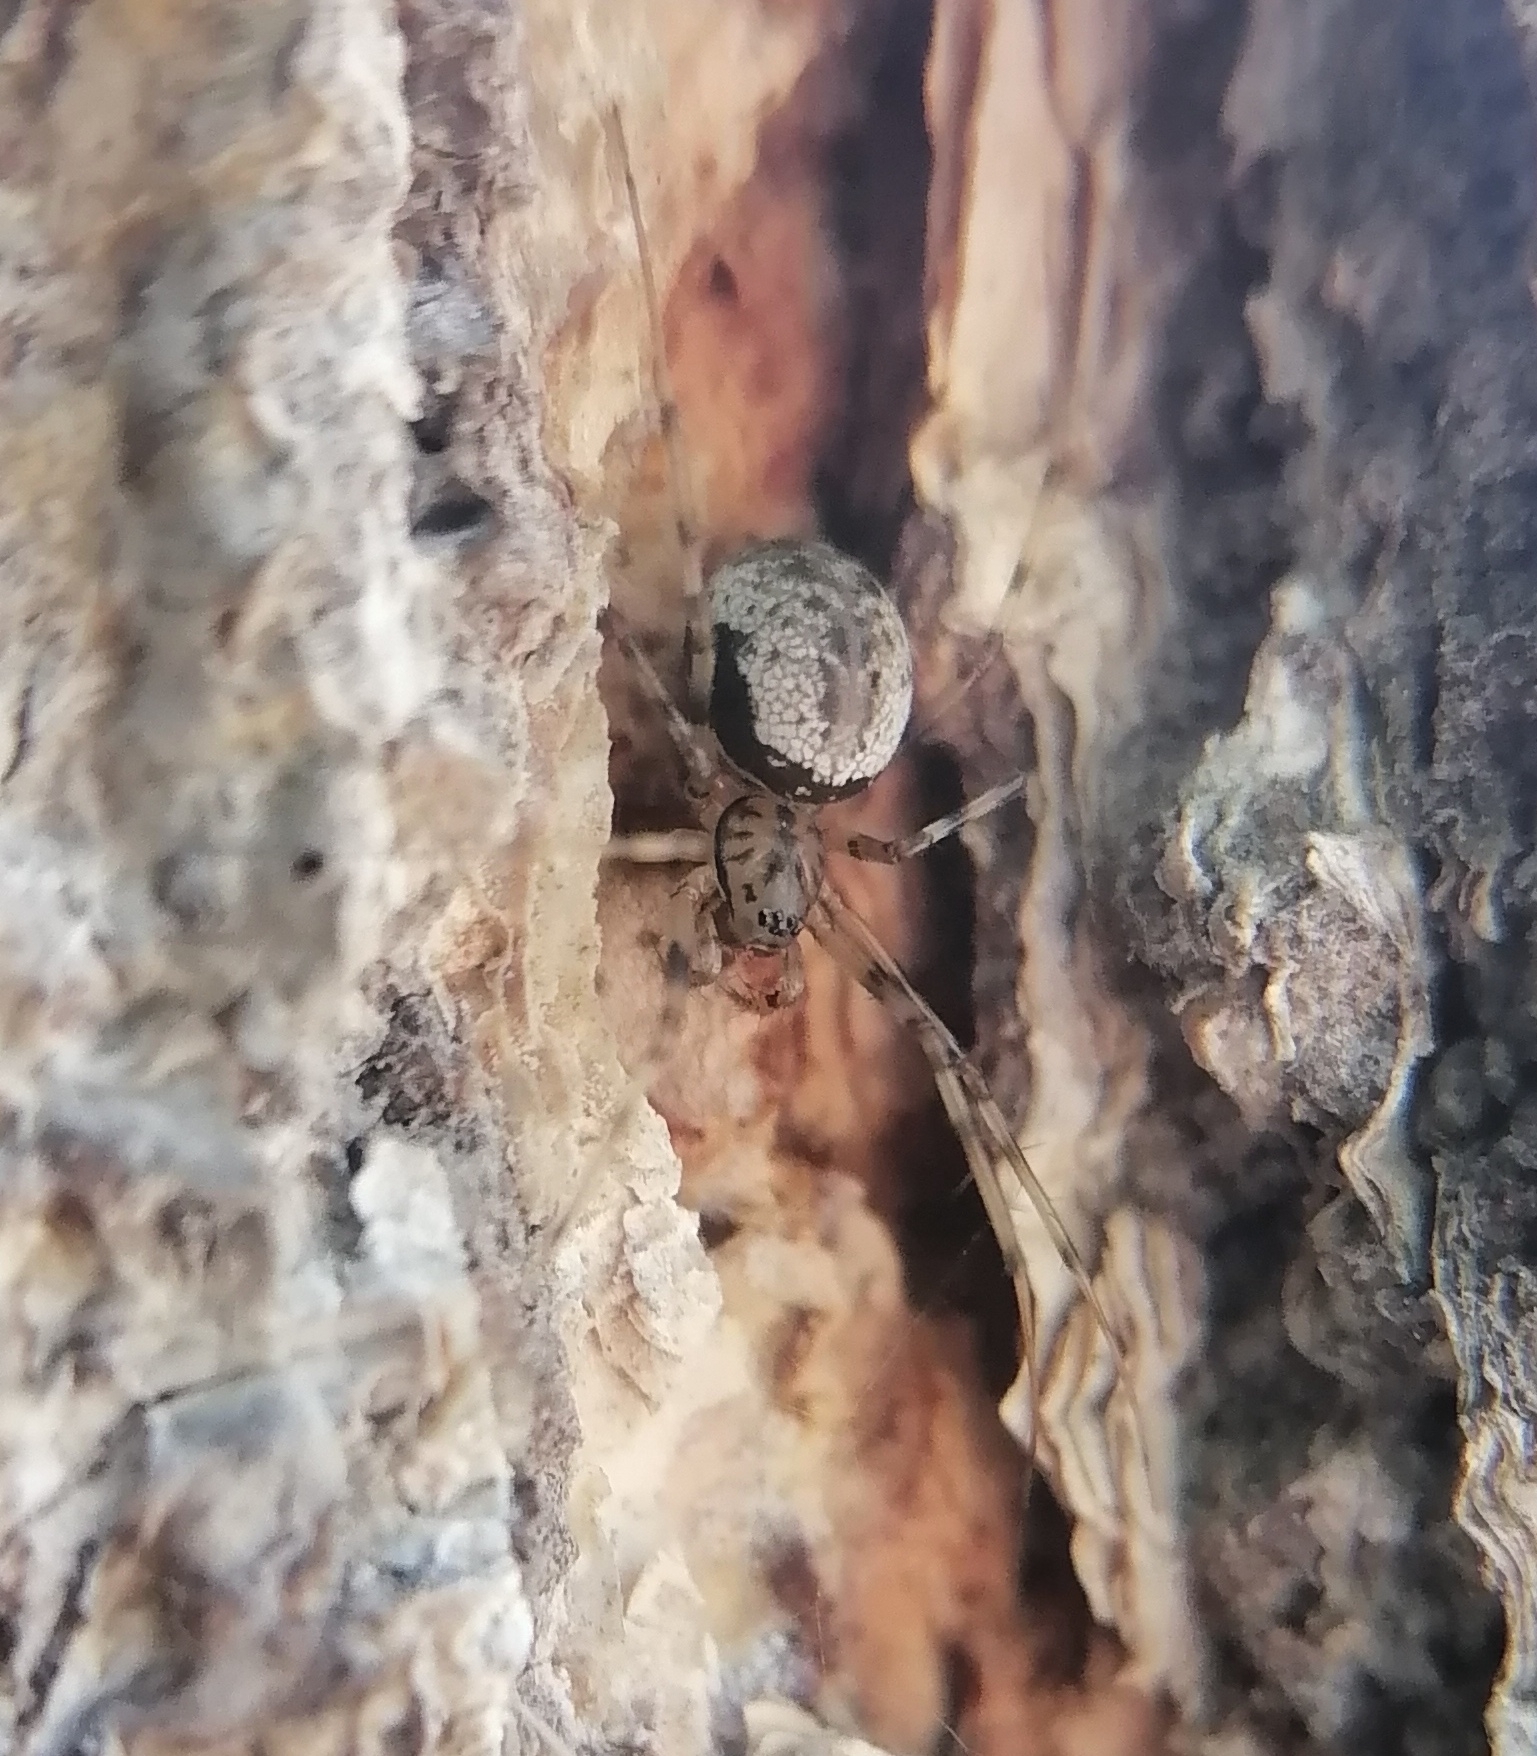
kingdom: Animalia
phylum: Arthropoda
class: Arachnida
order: Araneae
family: Linyphiidae
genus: Drapetisca
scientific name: Drapetisca socialis
